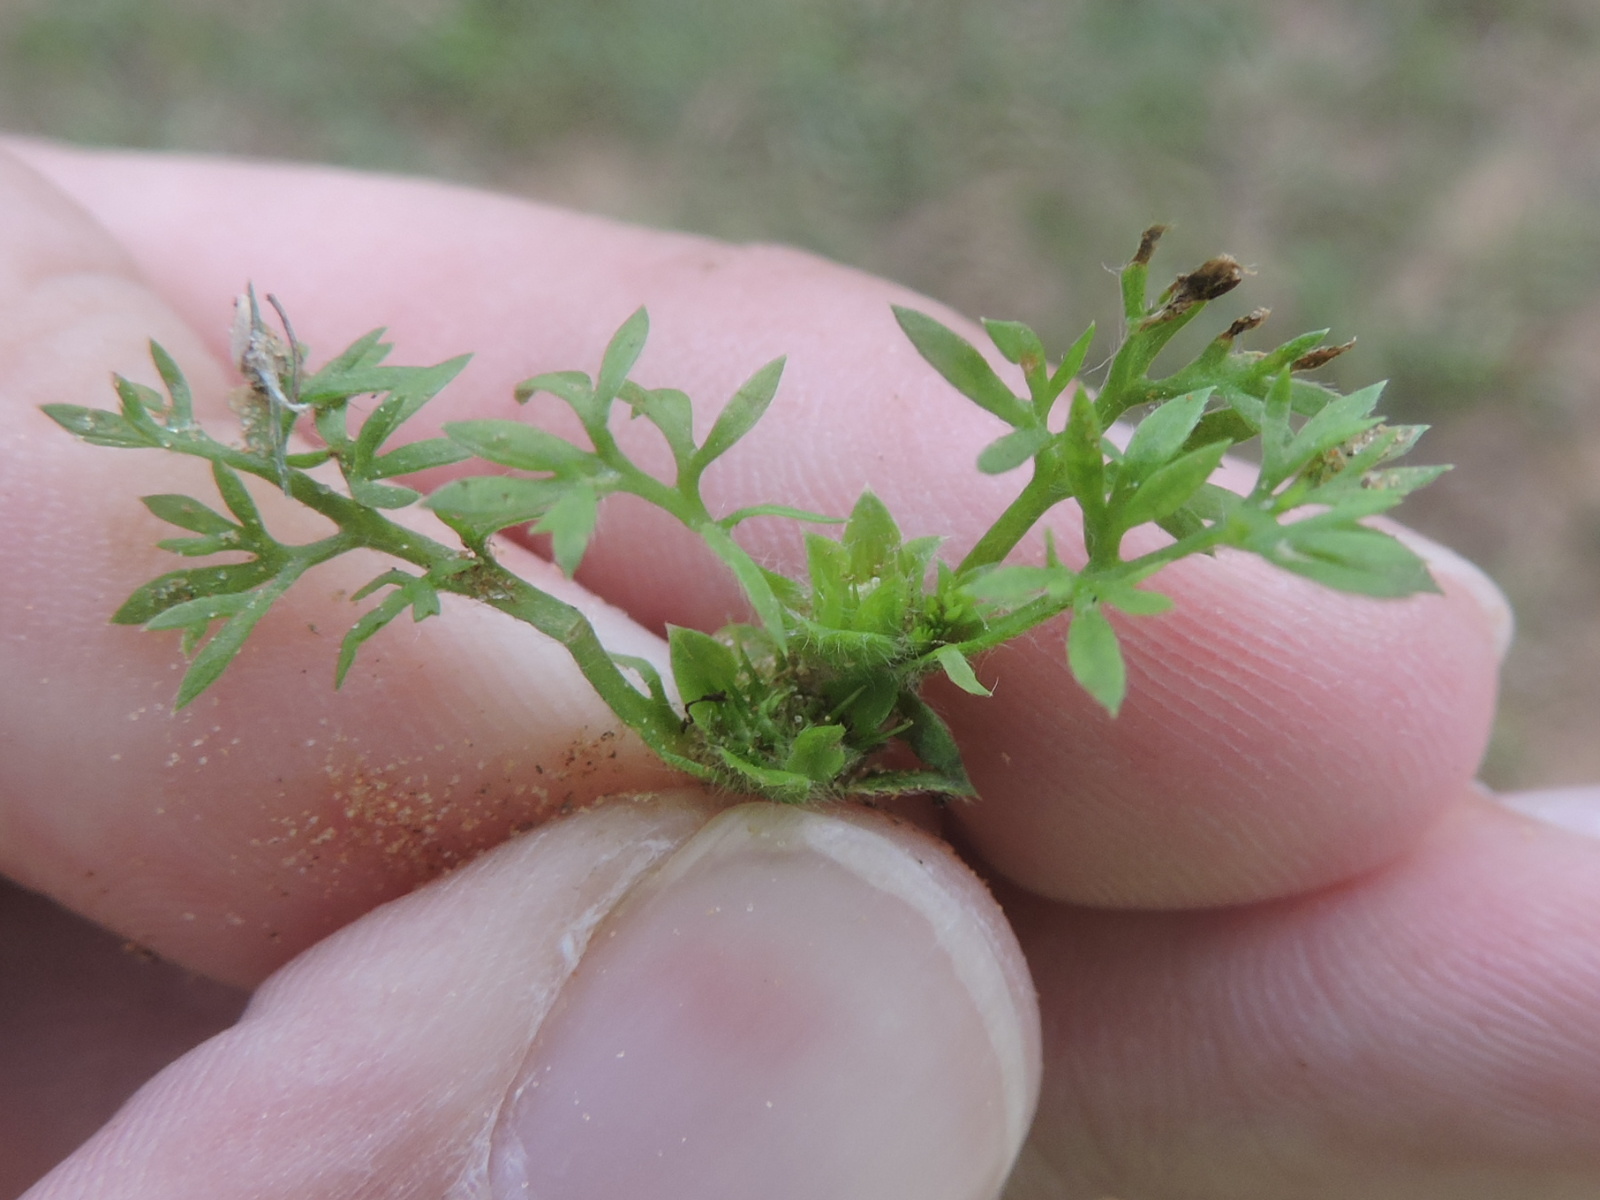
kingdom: Plantae
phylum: Tracheophyta
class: Magnoliopsida
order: Asterales
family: Asteraceae
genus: Soliva
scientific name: Soliva sessilis
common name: Field burrweed
